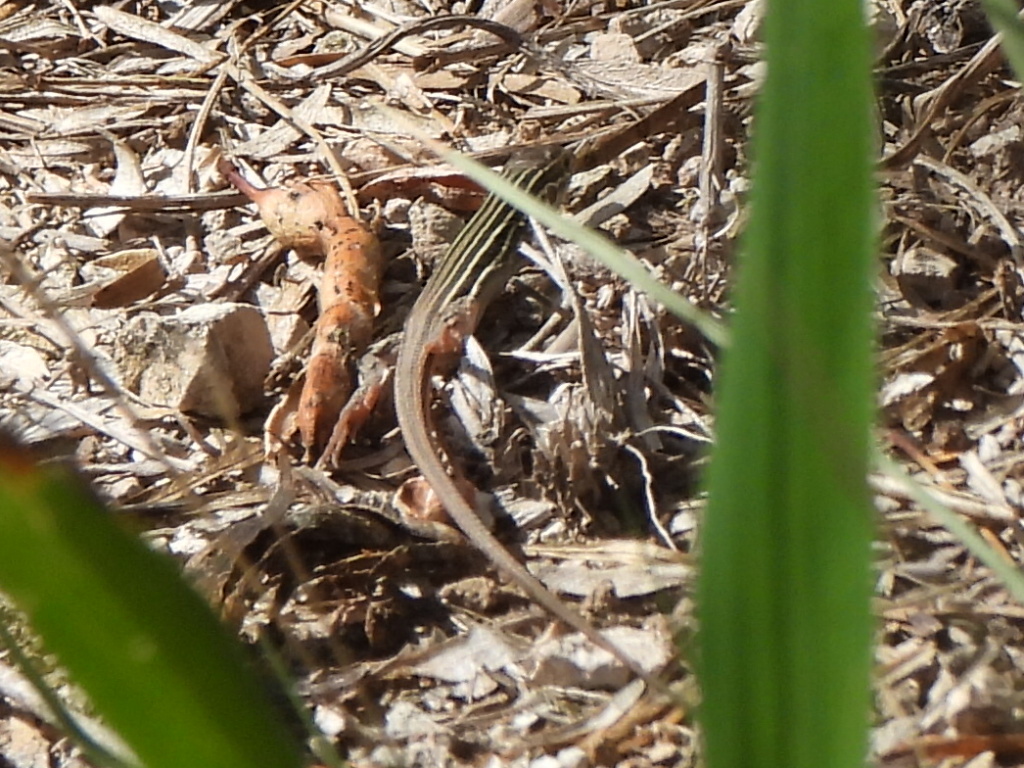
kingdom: Animalia
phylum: Chordata
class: Squamata
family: Teiidae
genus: Aspidoscelis
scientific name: Aspidoscelis gularis
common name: Eastern spotted whiptail
